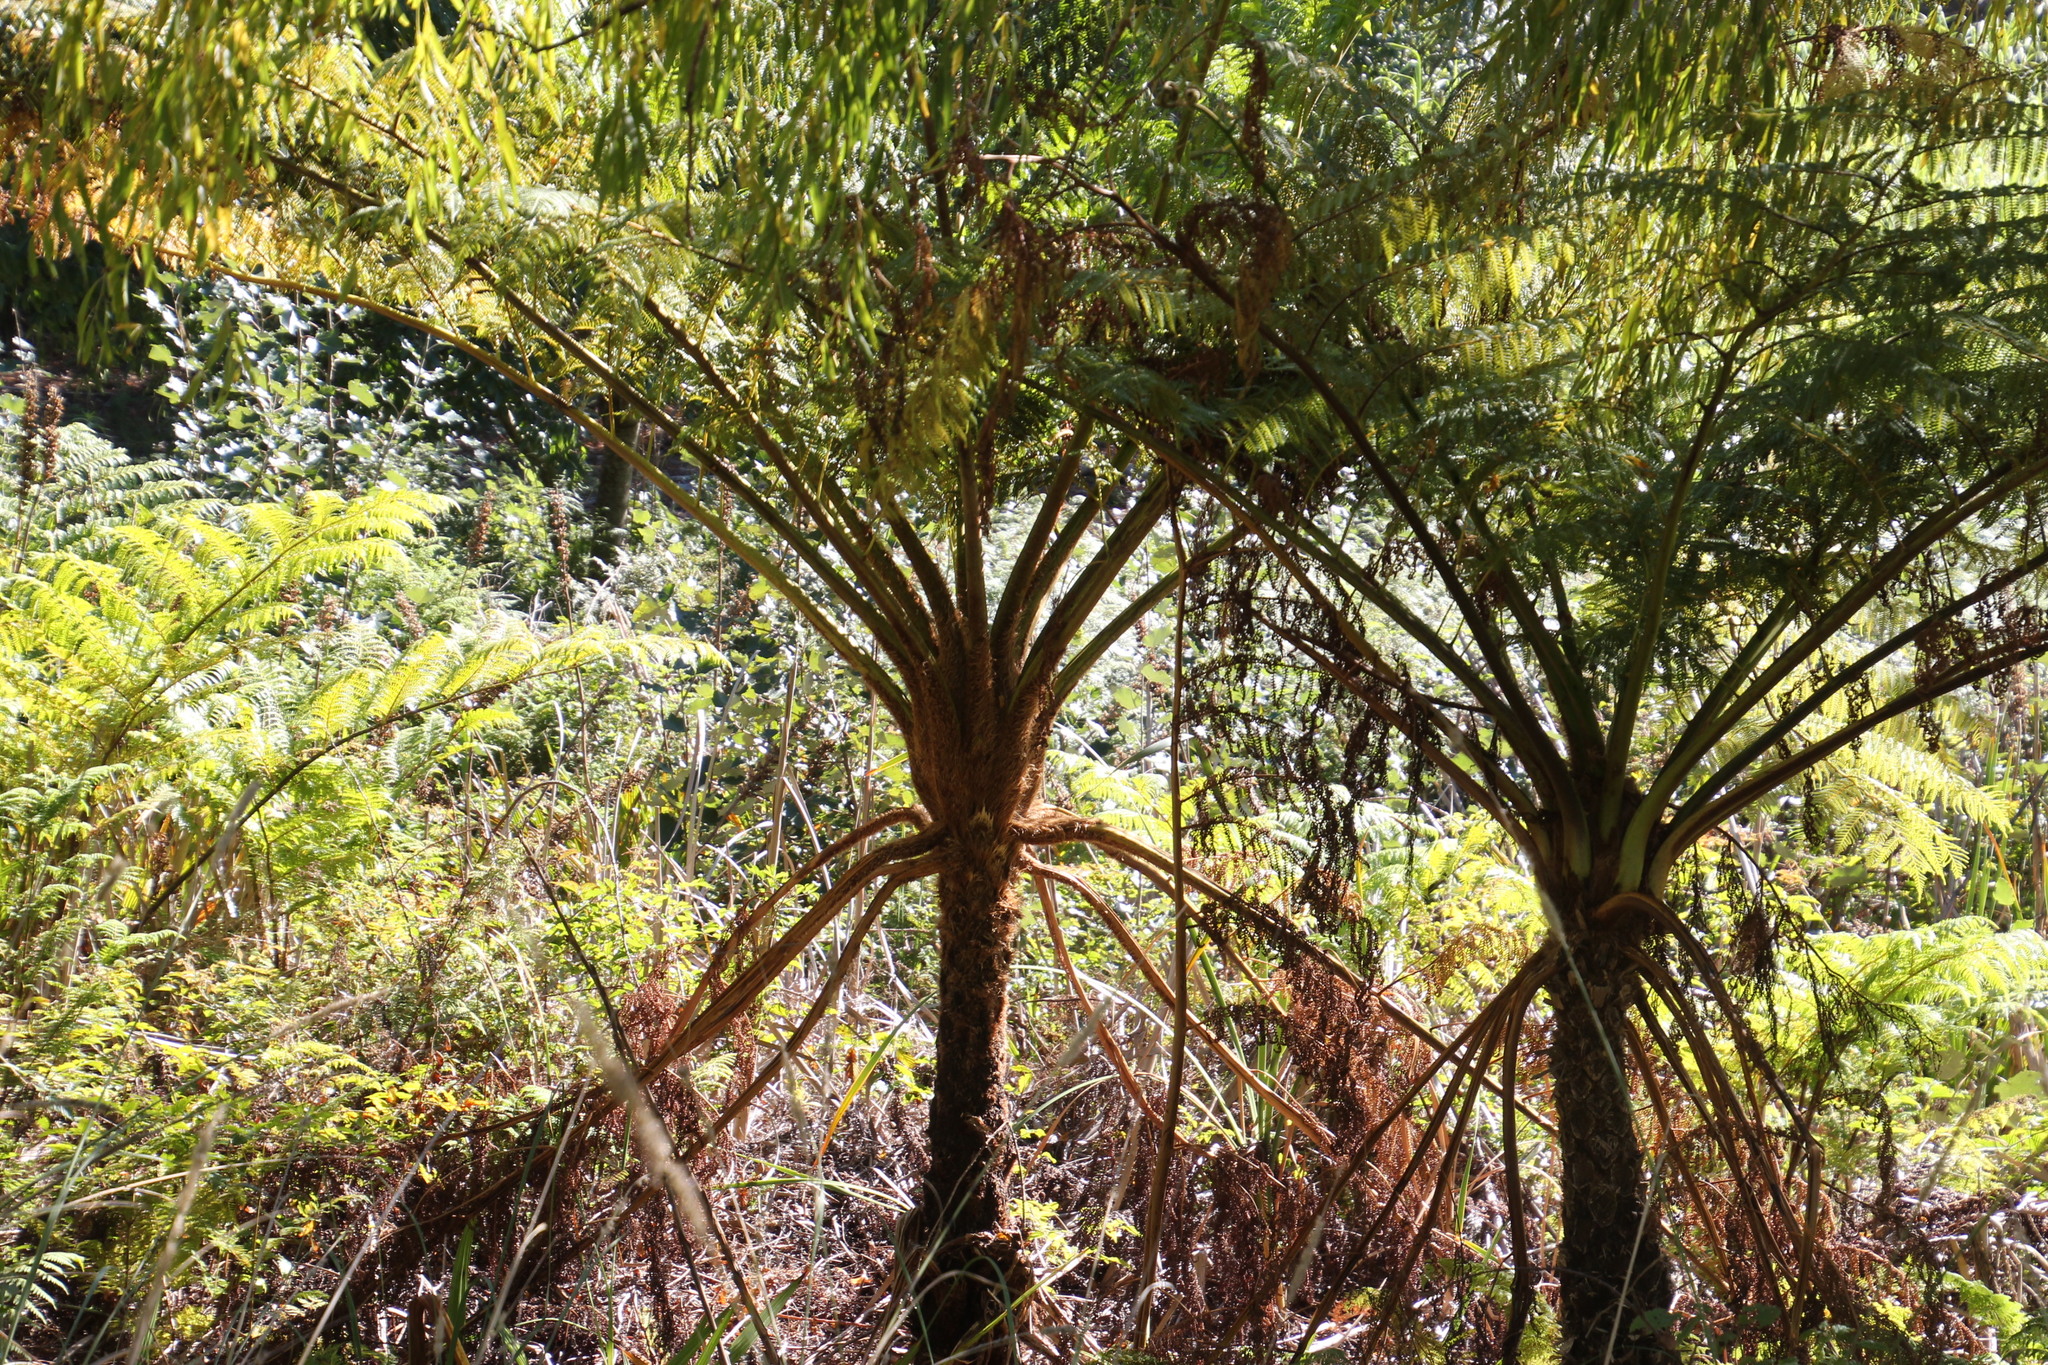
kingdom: Plantae
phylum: Tracheophyta
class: Polypodiopsida
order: Cyatheales
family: Cyatheaceae
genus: Sphaeropteris
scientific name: Sphaeropteris cooperi
